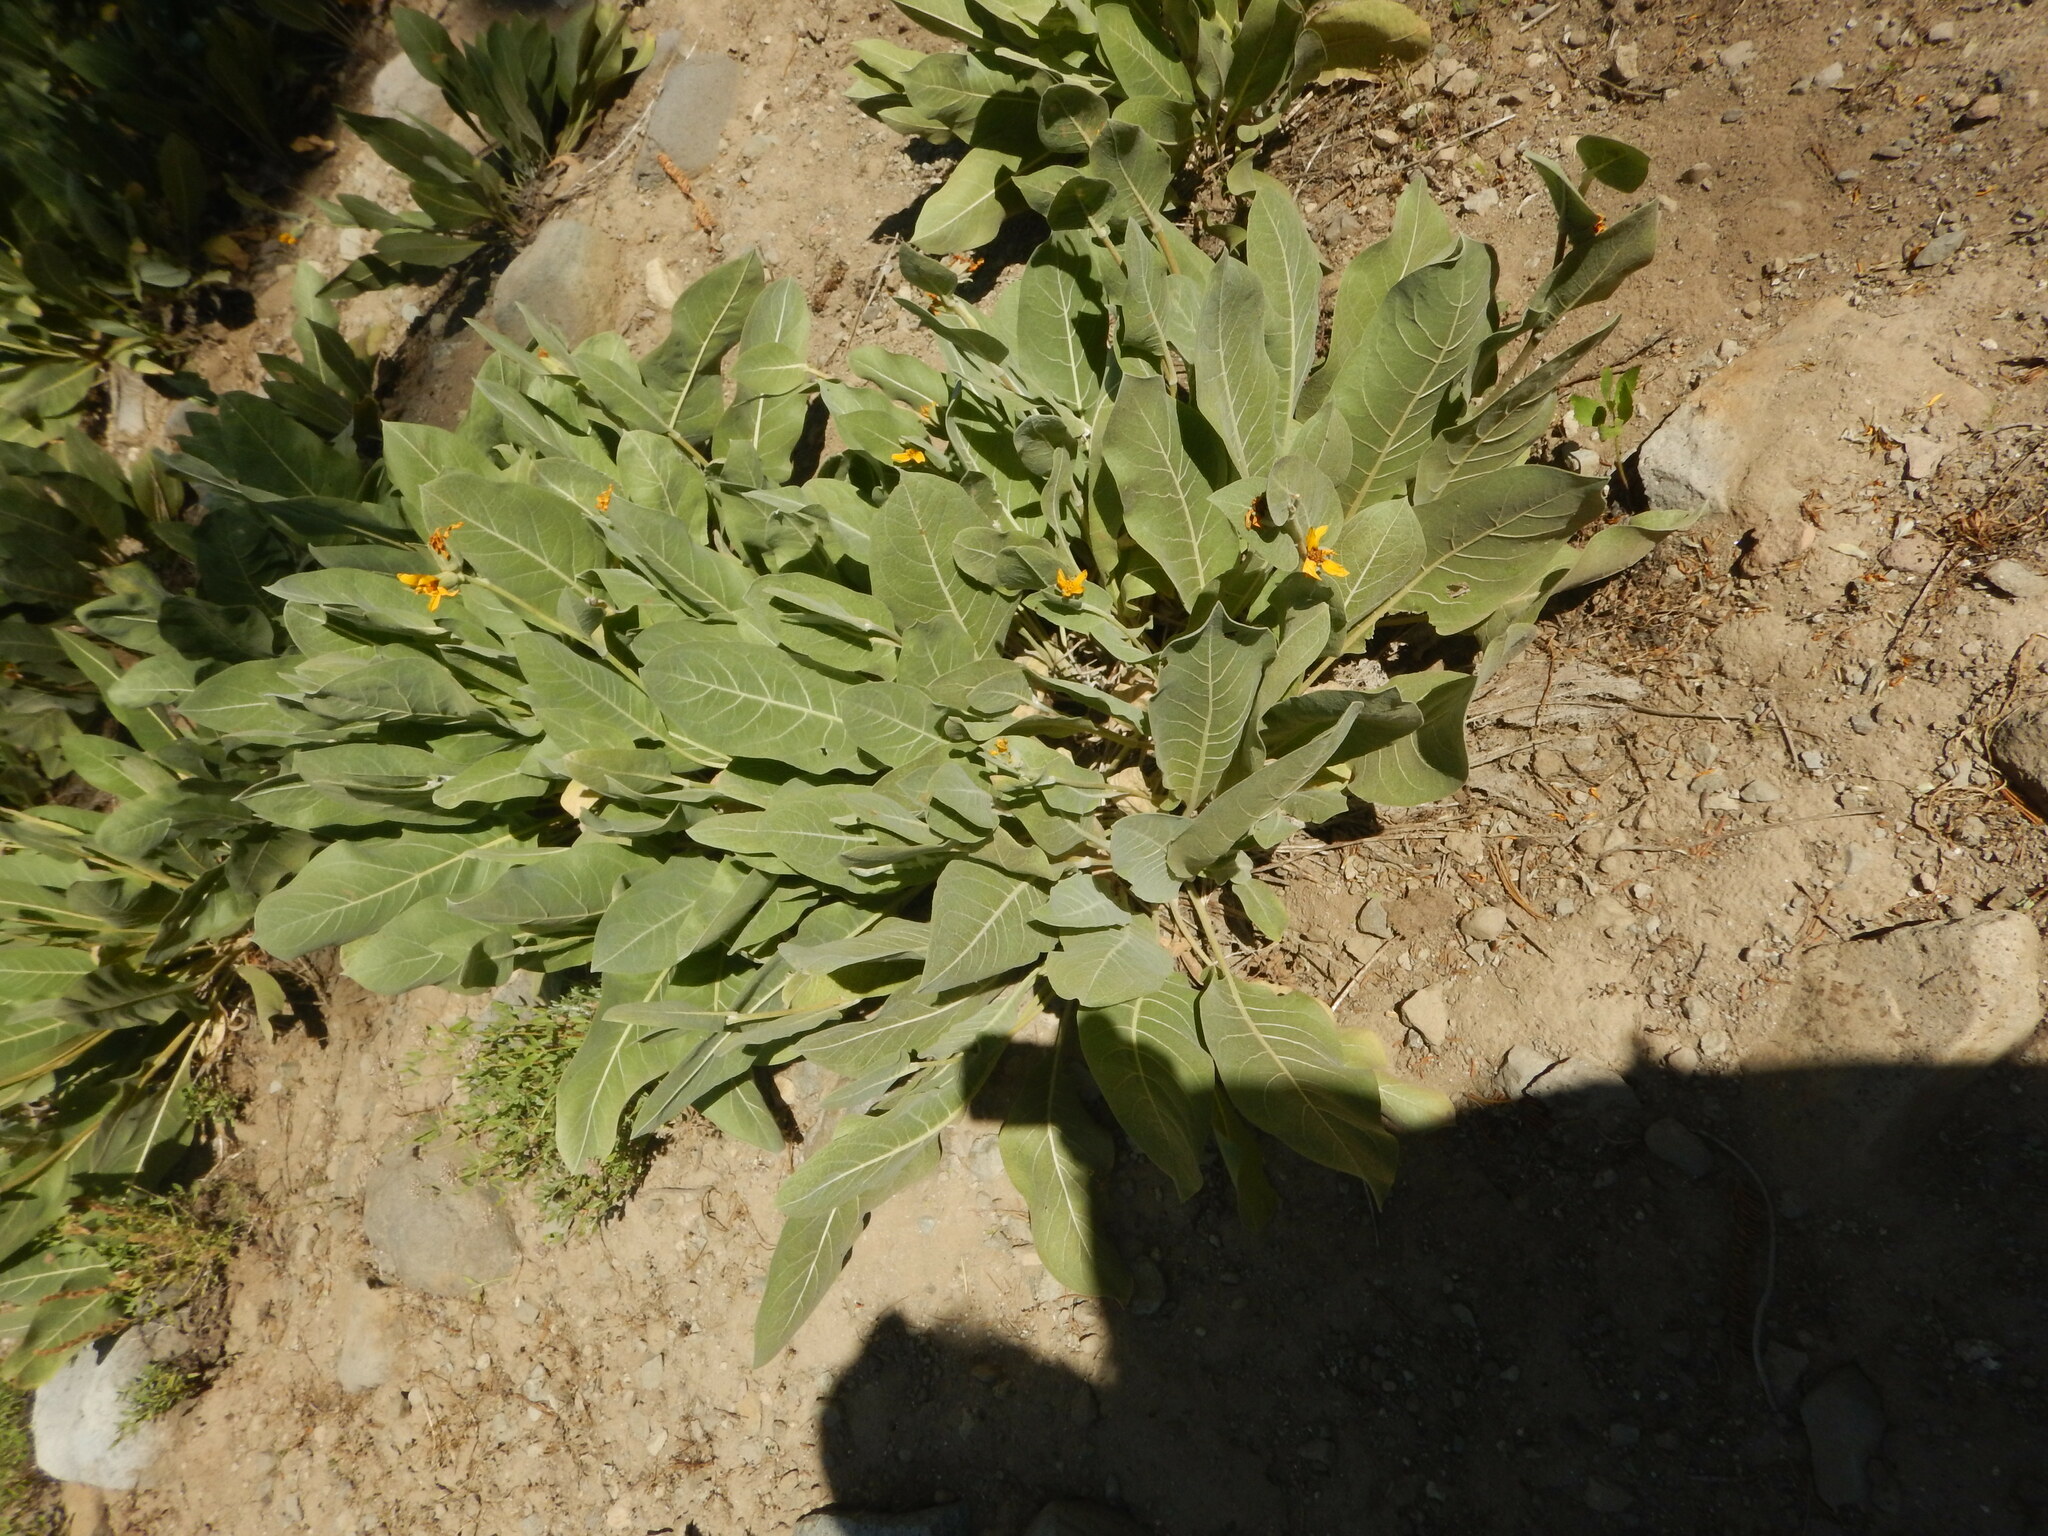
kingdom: Plantae
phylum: Tracheophyta
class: Magnoliopsida
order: Asterales
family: Asteraceae
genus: Wyethia
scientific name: Wyethia mollis
